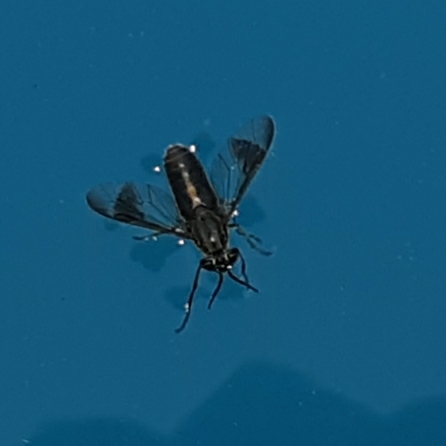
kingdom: Animalia
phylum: Arthropoda
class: Insecta
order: Diptera
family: Tabanidae
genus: Chrysops
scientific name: Chrysops univittatus
